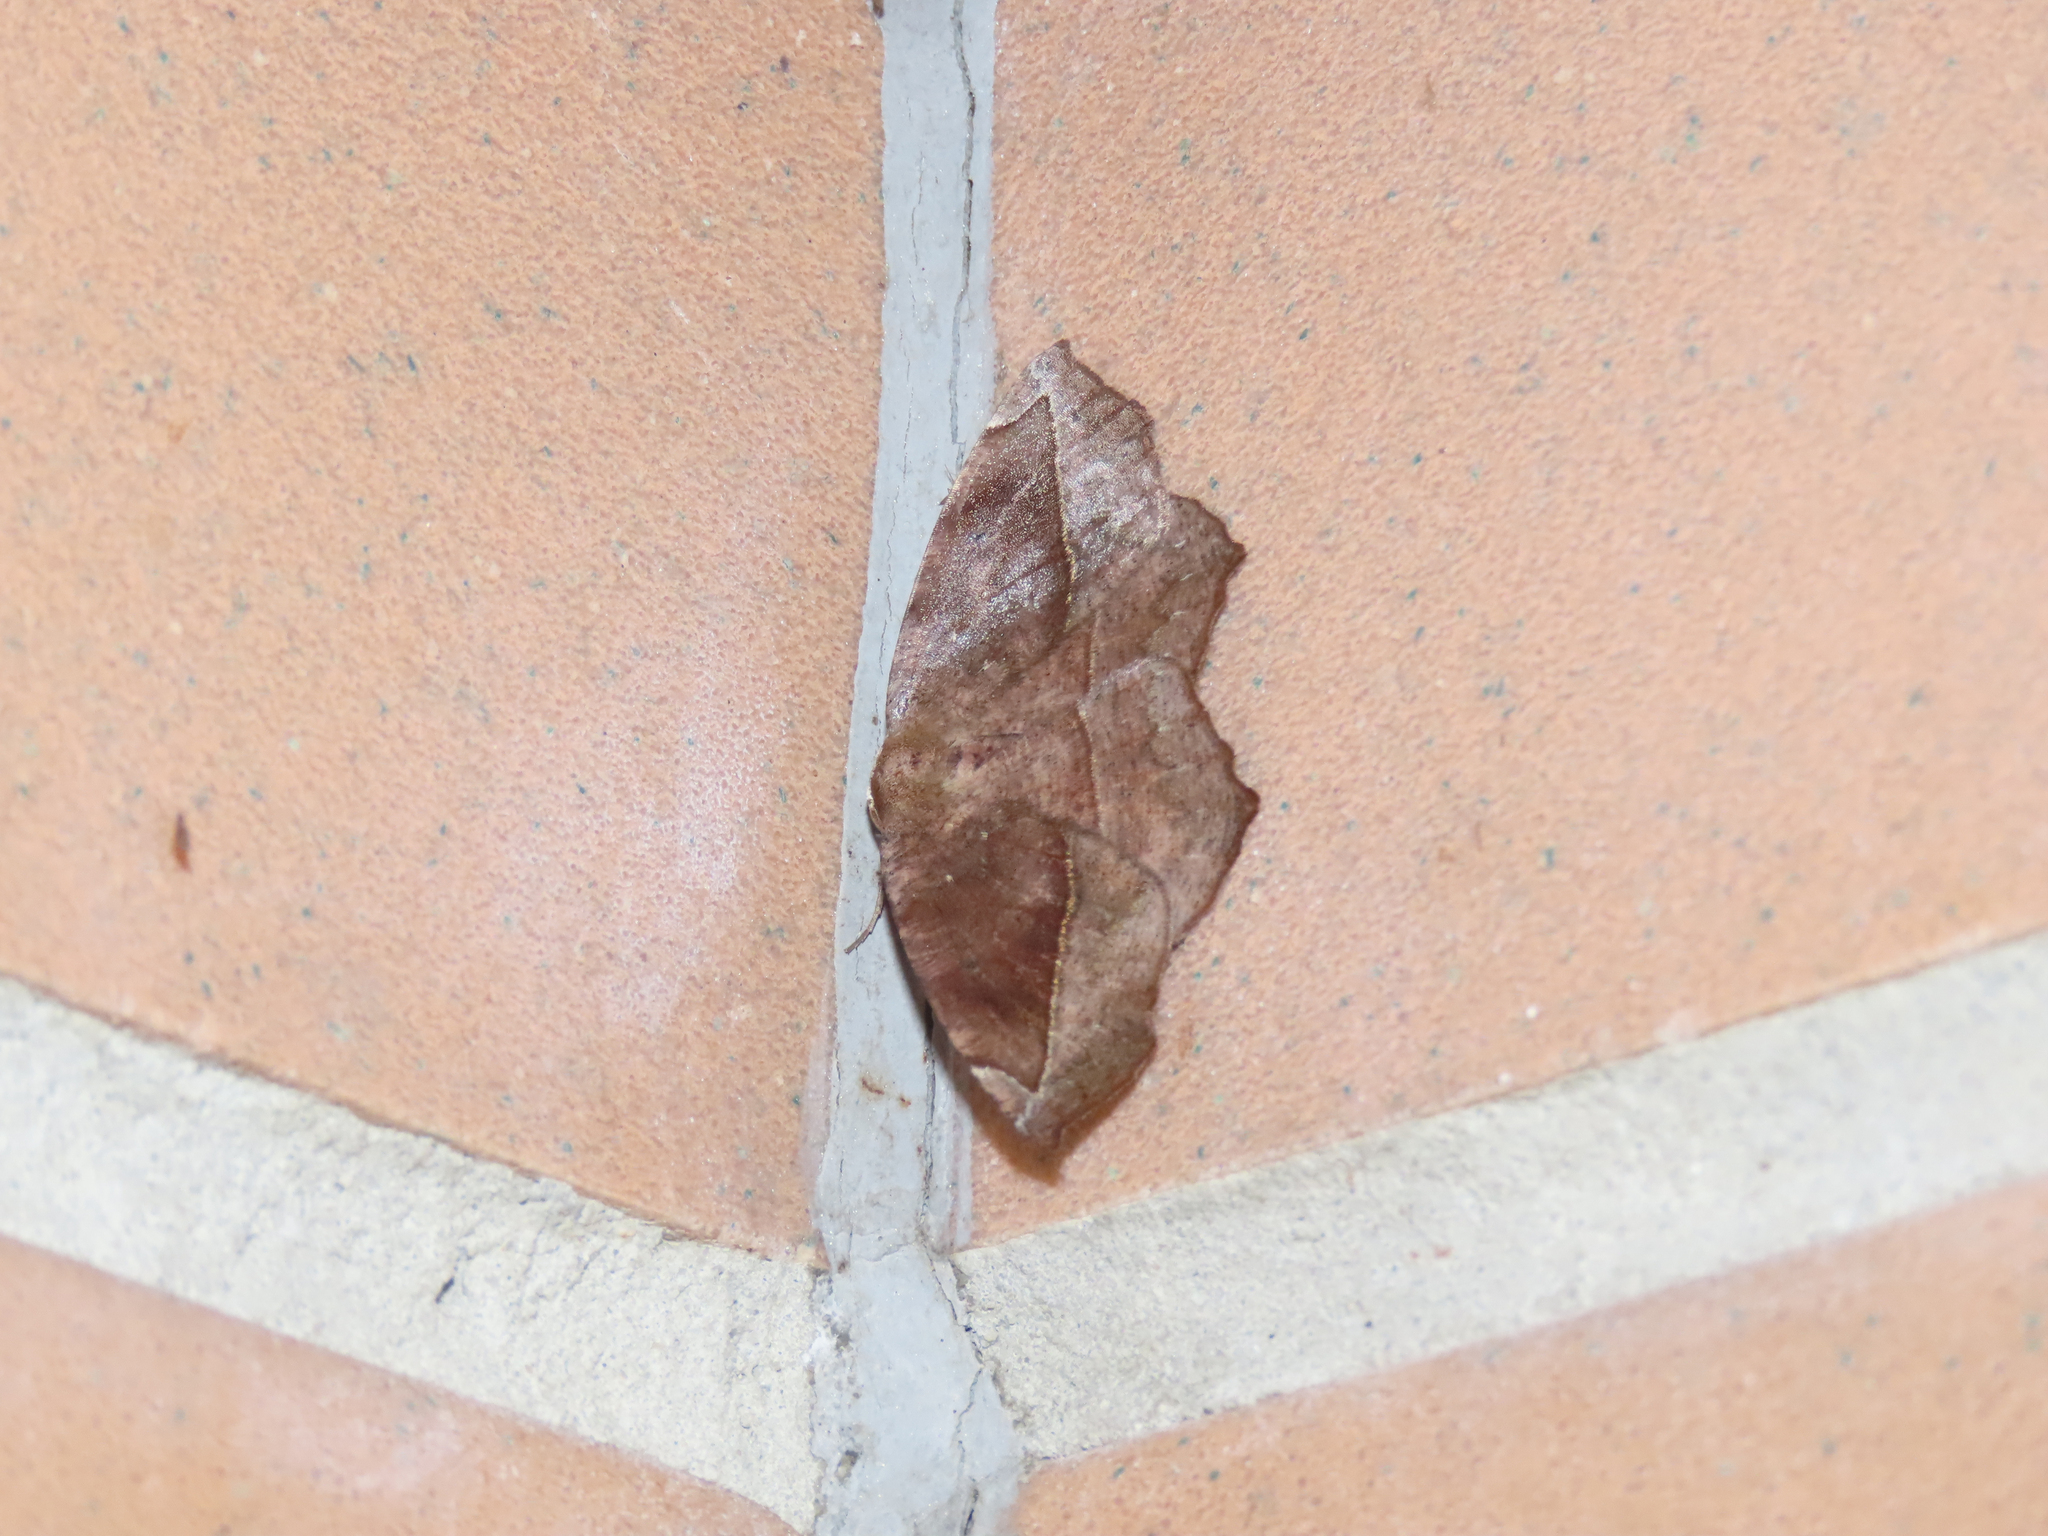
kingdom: Animalia
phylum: Arthropoda
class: Insecta
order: Lepidoptera
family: Geometridae
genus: Eutrapela
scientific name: Eutrapela clemataria
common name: Curved-toothed geometer
